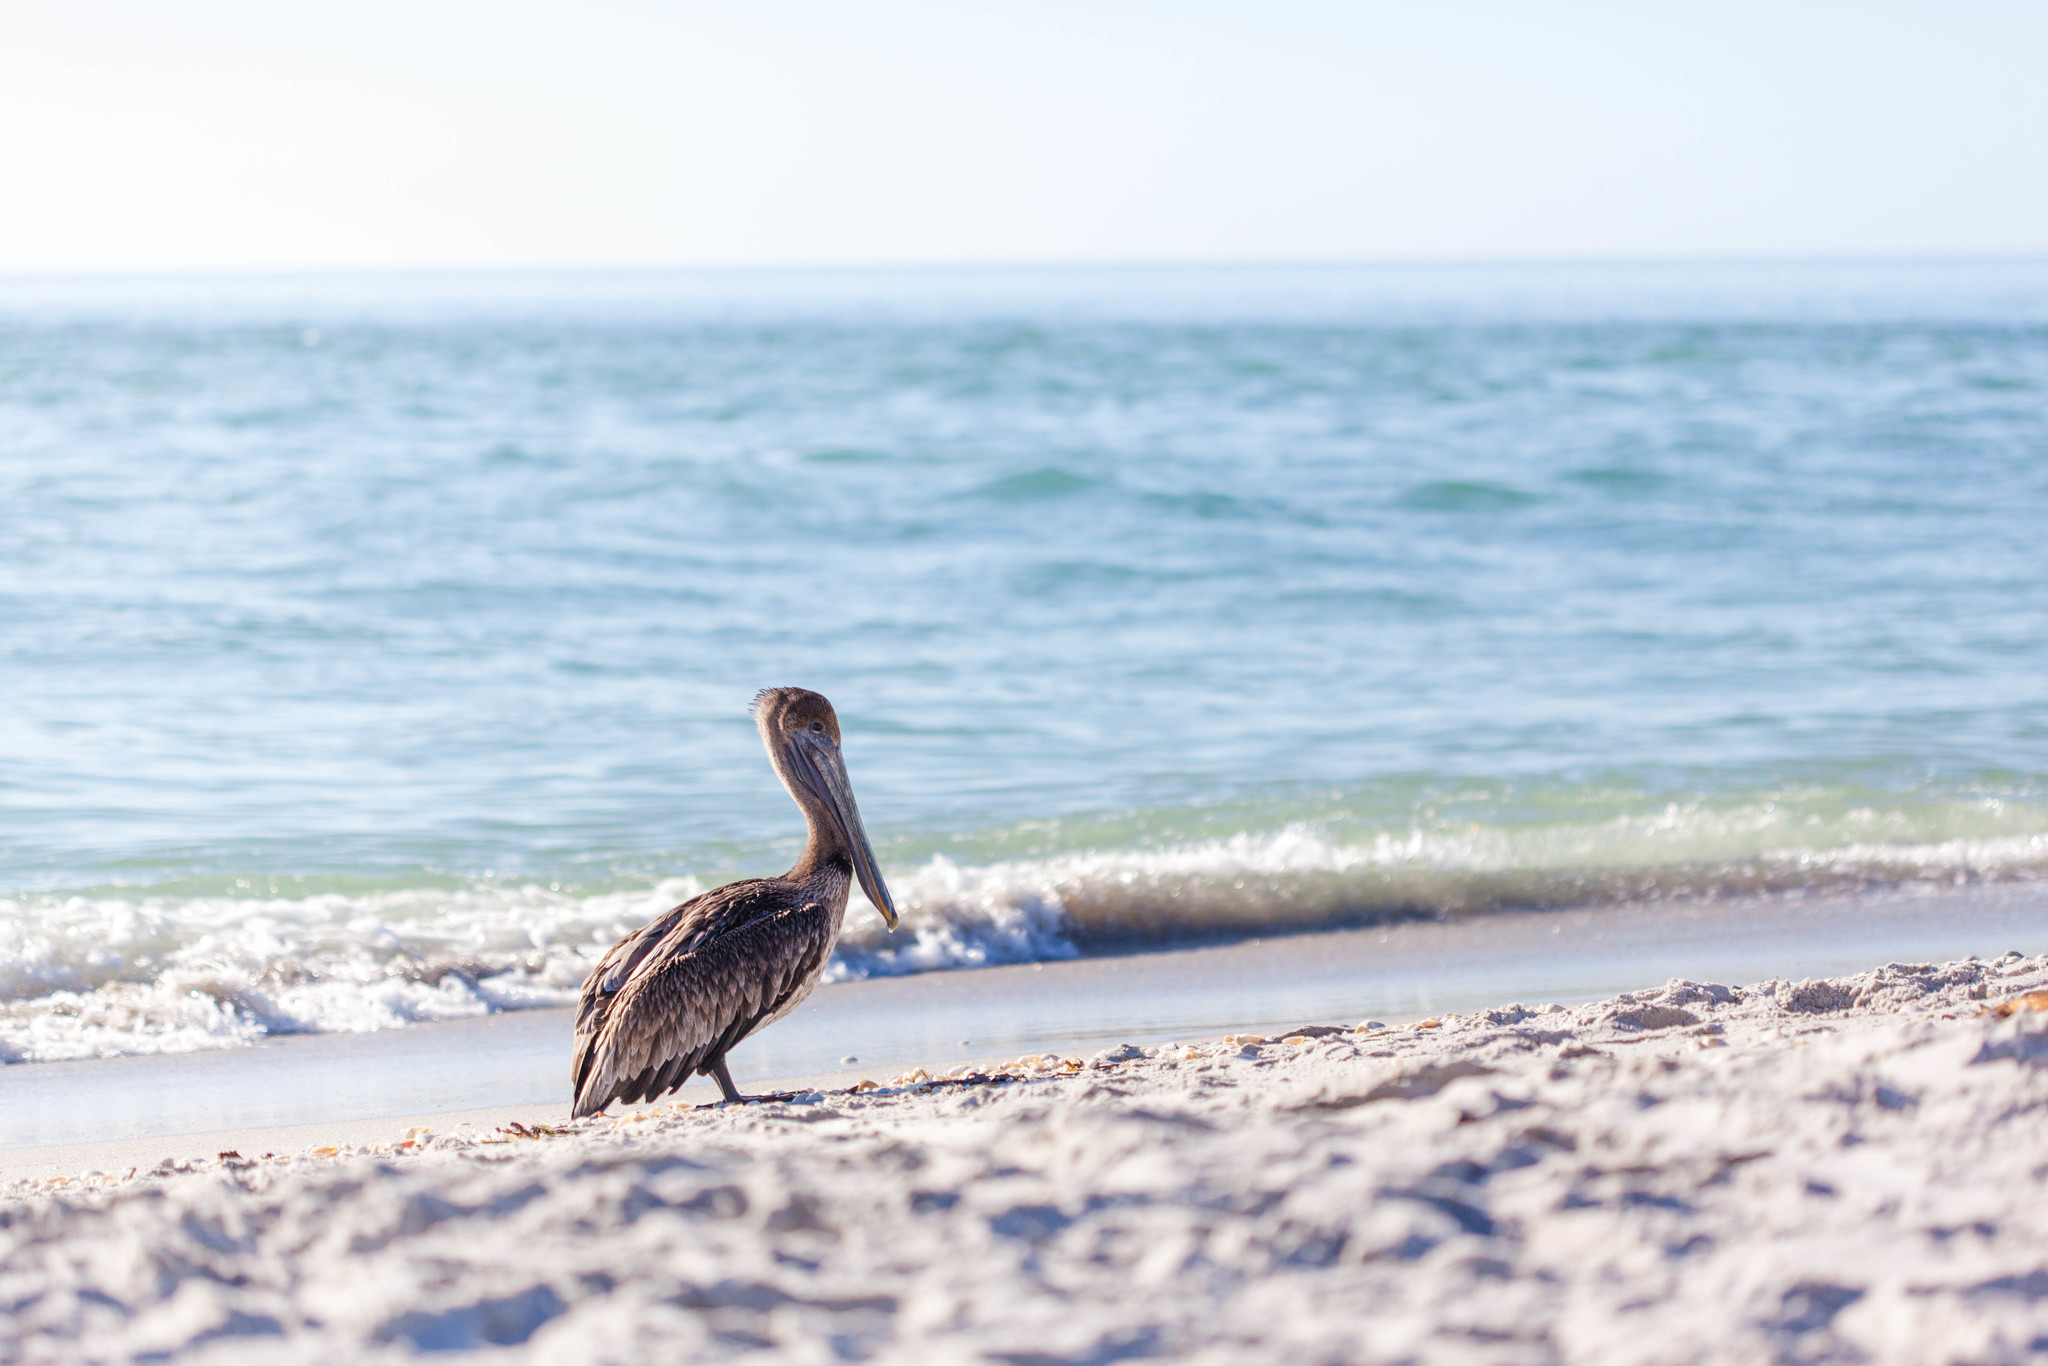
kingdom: Animalia
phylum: Chordata
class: Aves
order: Pelecaniformes
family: Pelecanidae
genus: Pelecanus
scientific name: Pelecanus occidentalis
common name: Brown pelican
